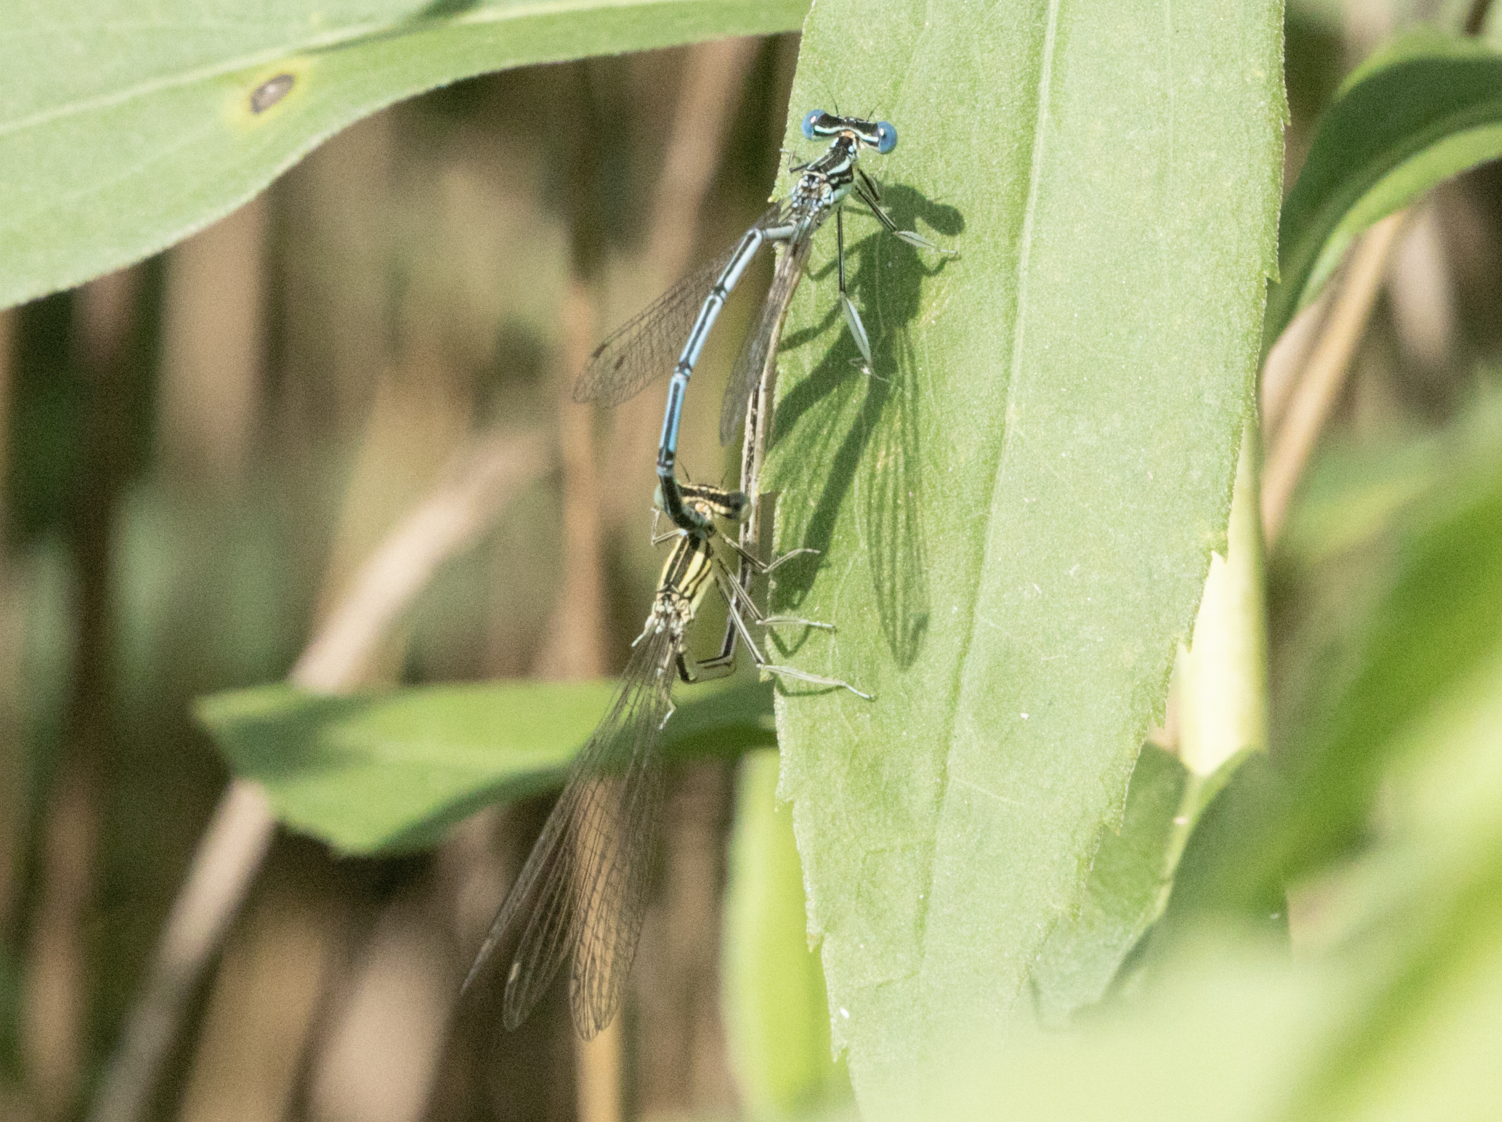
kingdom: Animalia
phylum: Arthropoda
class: Insecta
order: Odonata
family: Platycnemididae
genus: Platycnemis
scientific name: Platycnemis pennipes
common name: White-legged damselfly
